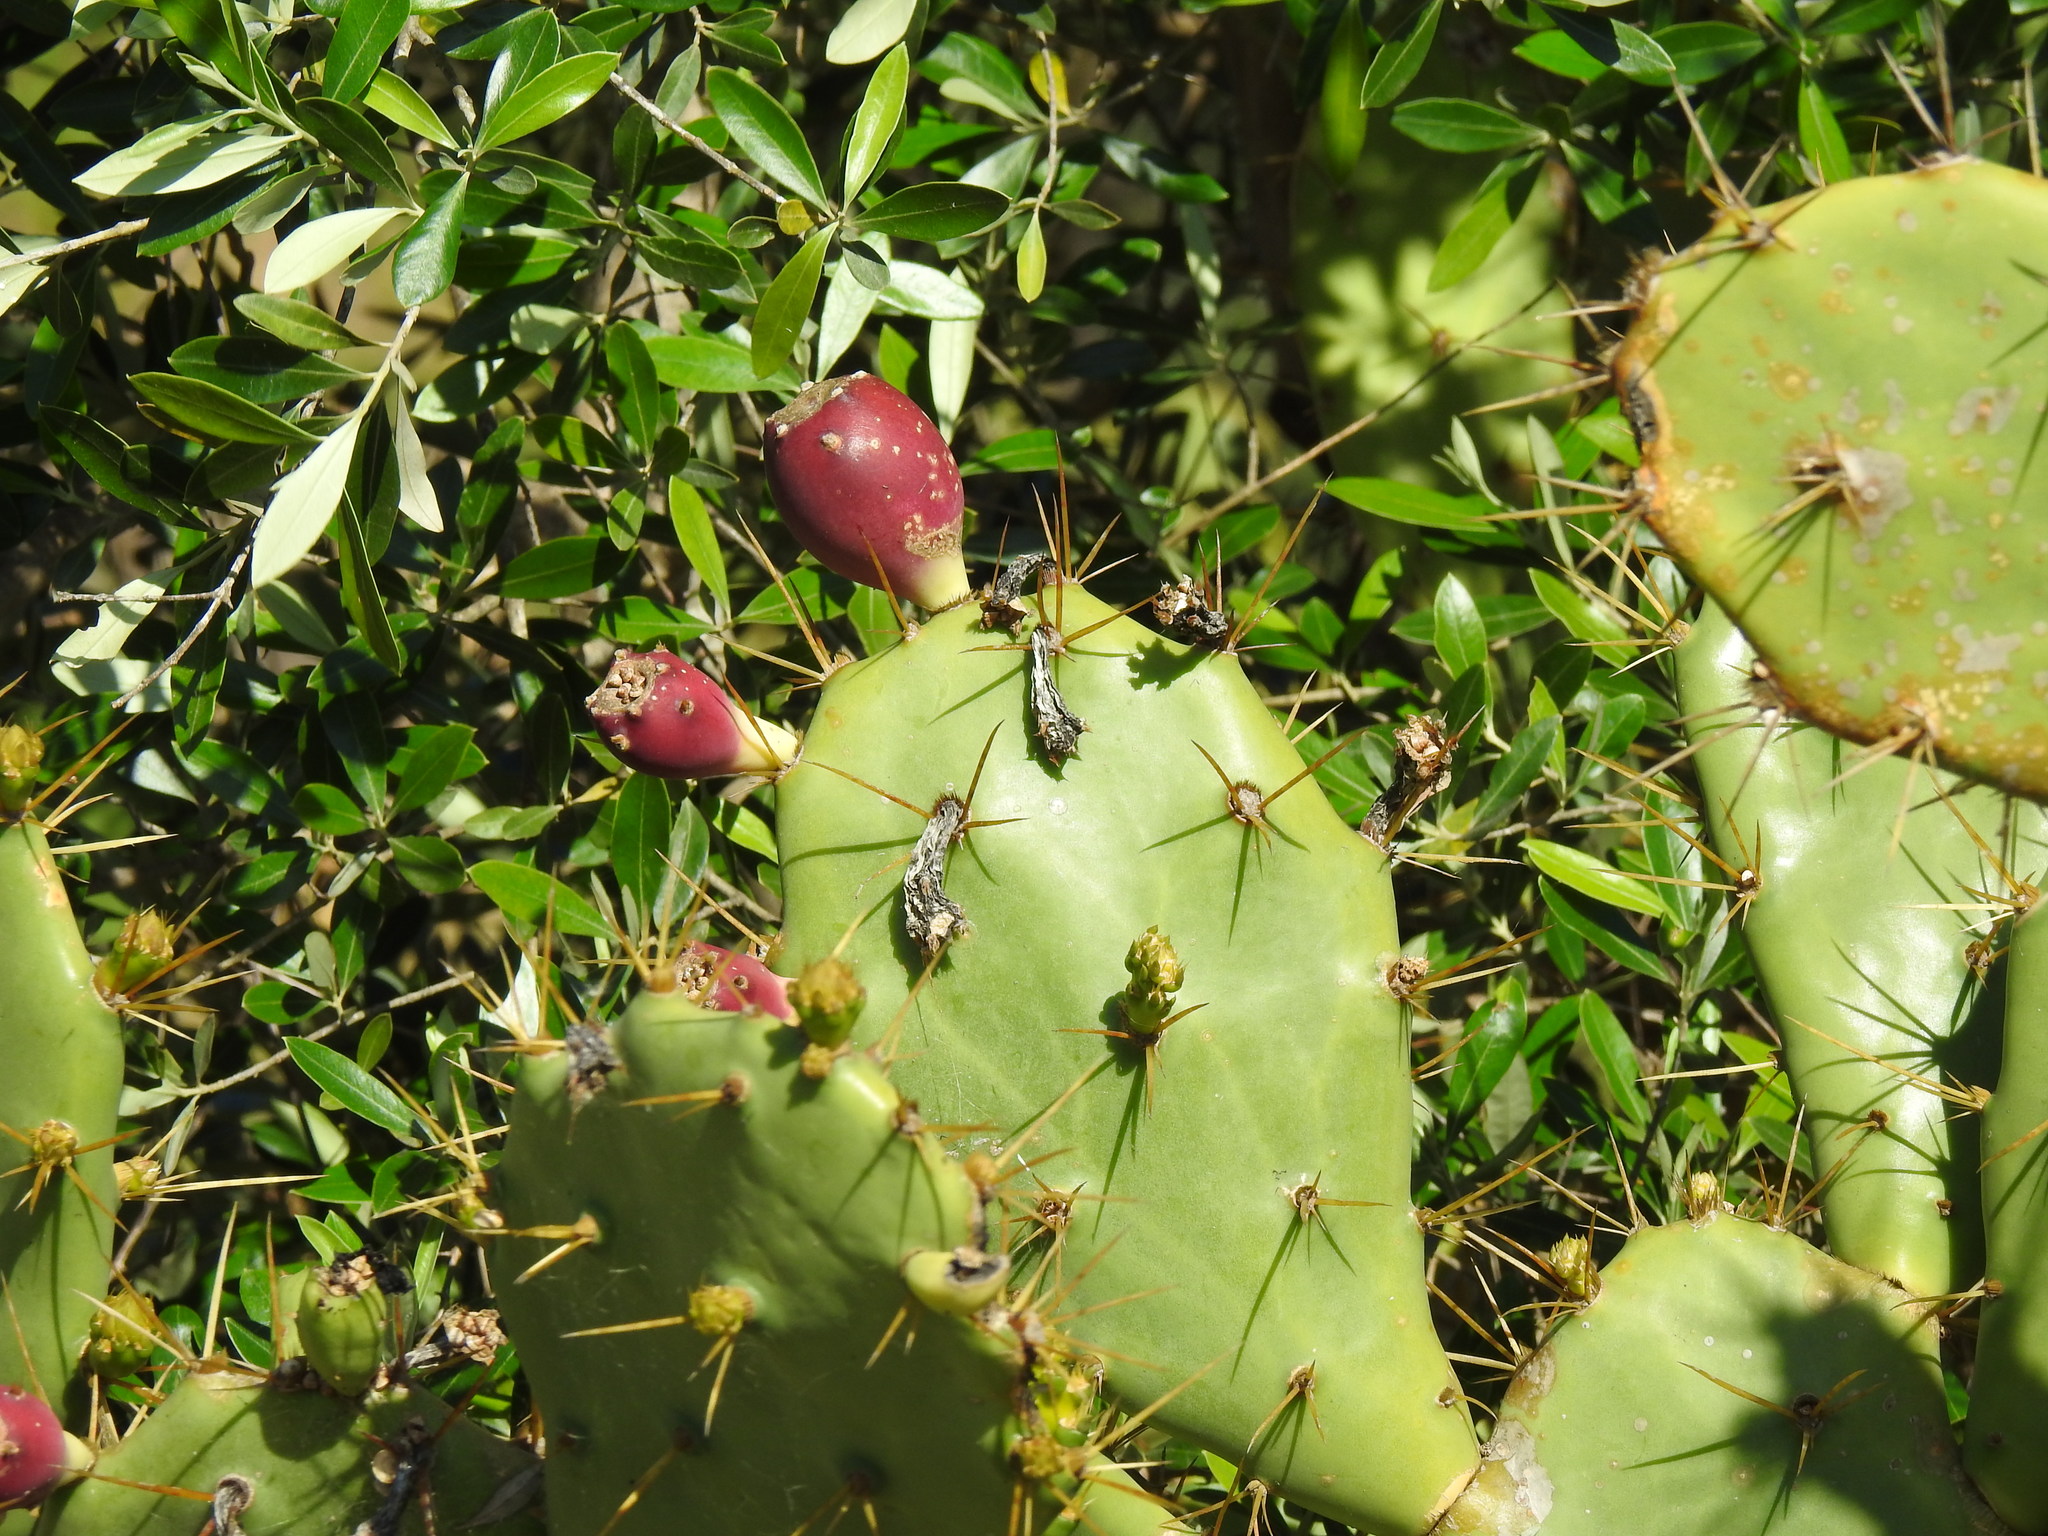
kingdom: Plantae
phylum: Tracheophyta
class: Magnoliopsida
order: Caryophyllales
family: Cactaceae
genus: Opuntia
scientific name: Opuntia stricta
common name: Erect pricklypear
